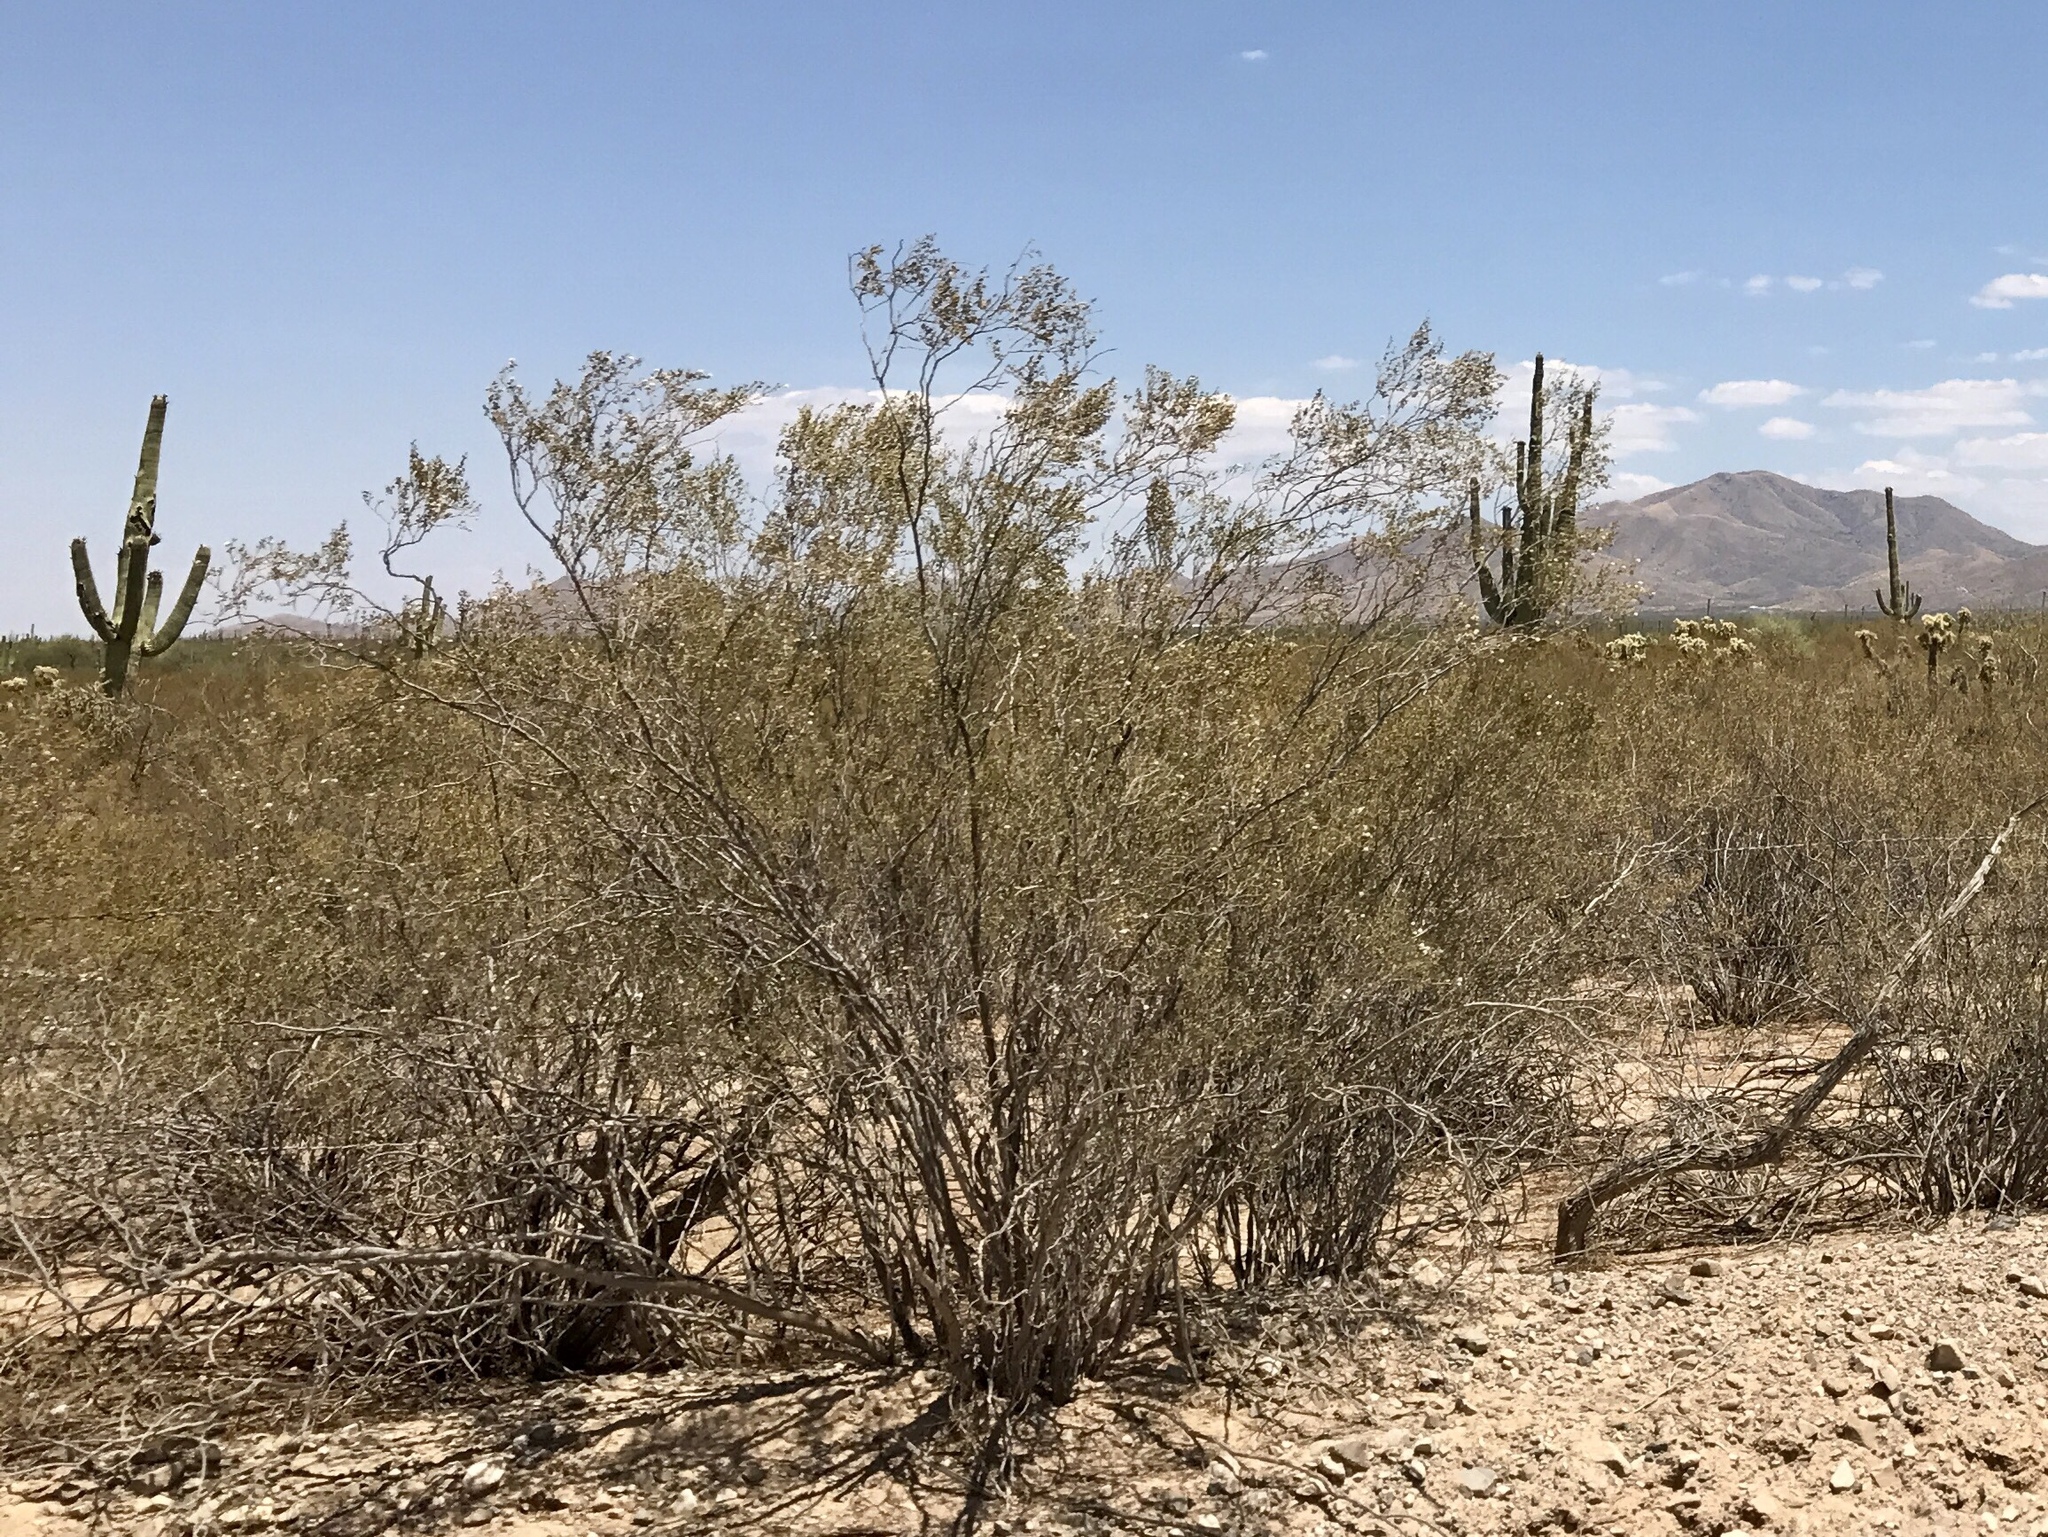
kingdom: Plantae
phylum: Tracheophyta
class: Magnoliopsida
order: Zygophyllales
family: Zygophyllaceae
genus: Larrea
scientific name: Larrea tridentata
